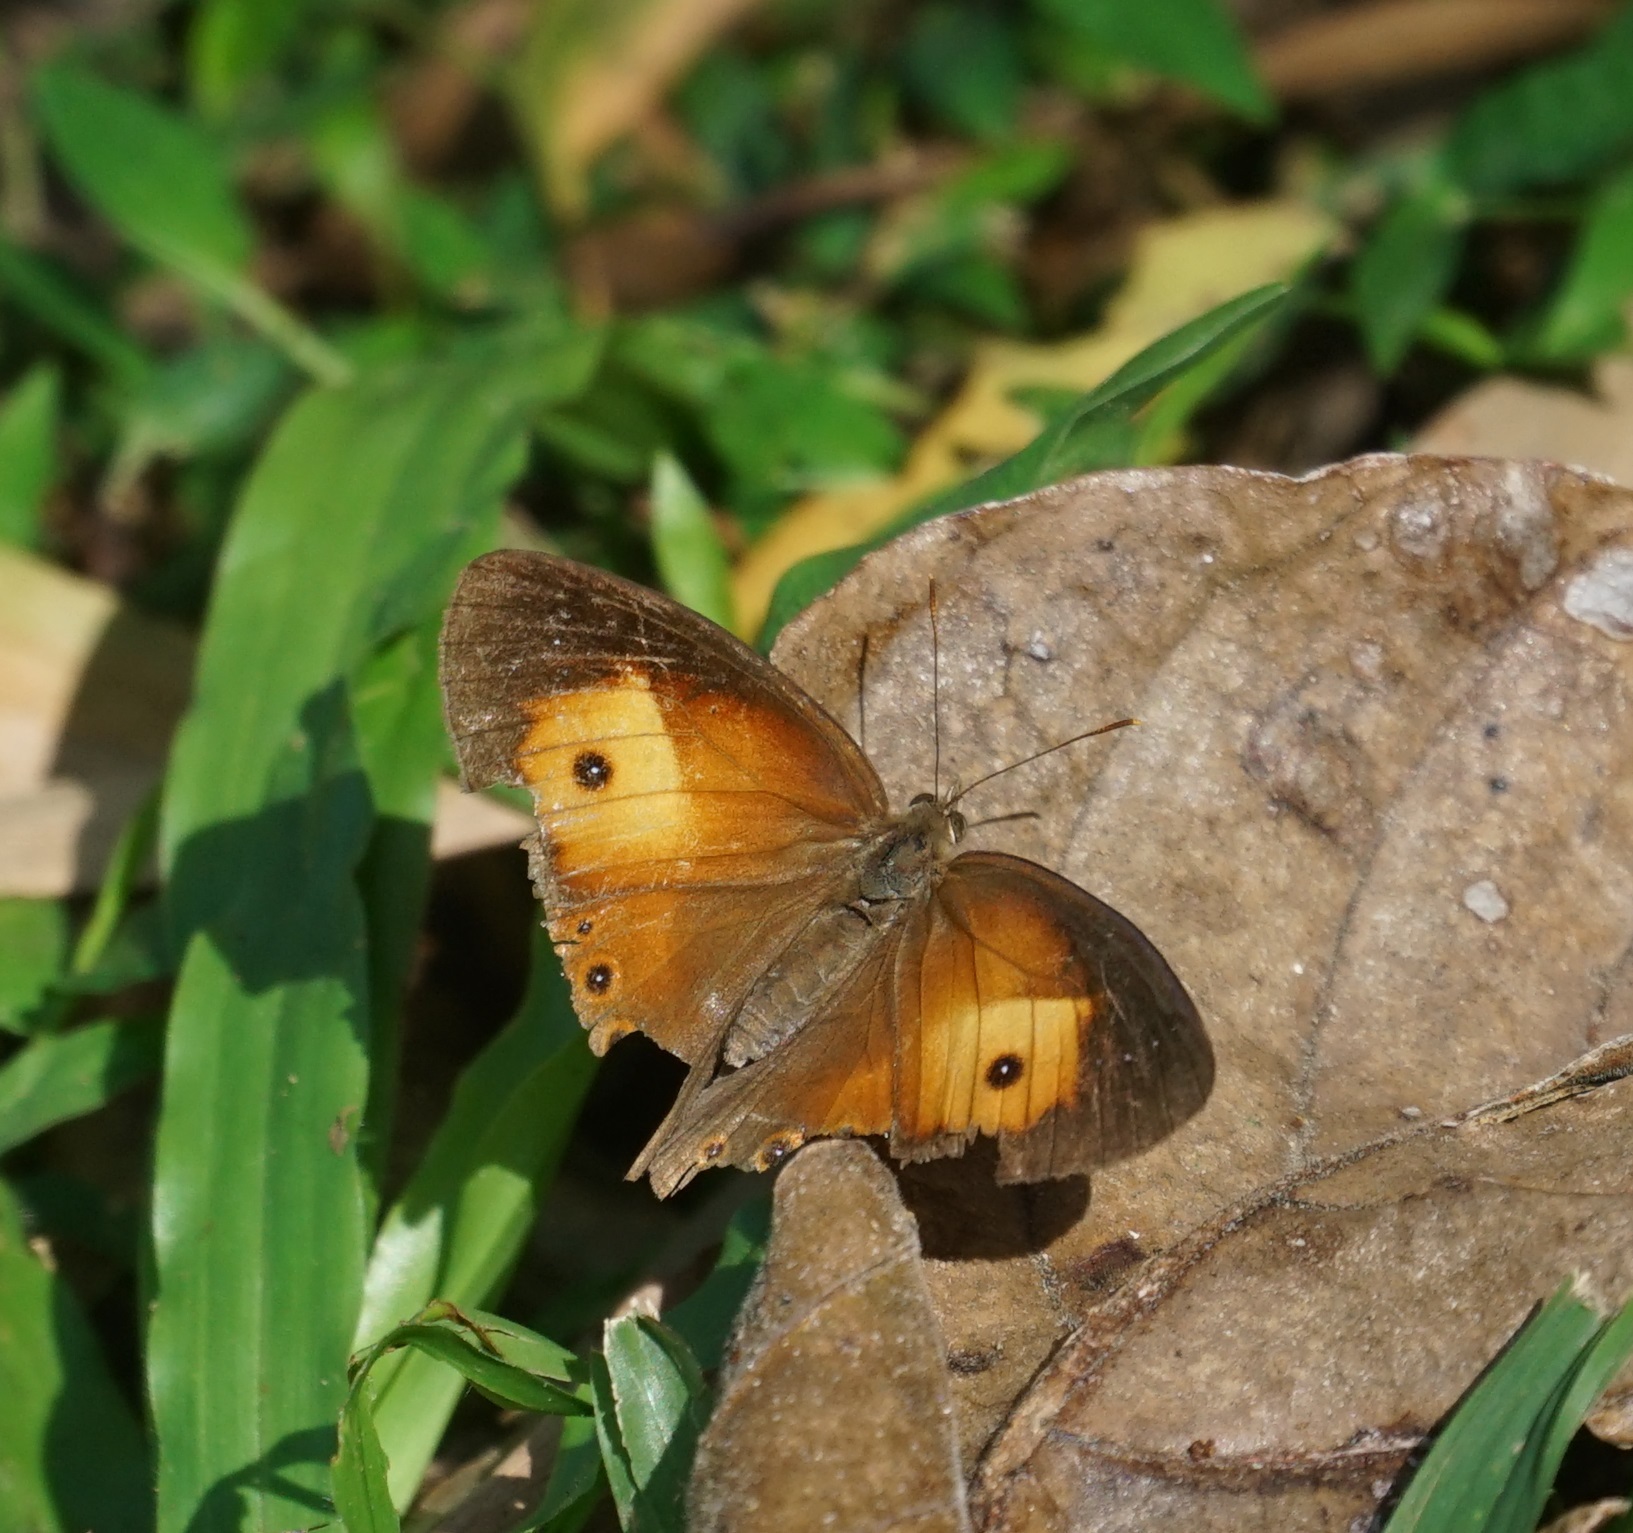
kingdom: Animalia
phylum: Arthropoda
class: Insecta
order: Lepidoptera
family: Nymphalidae
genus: Mycalesis
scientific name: Mycalesis terminus
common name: Orange bushbrown
